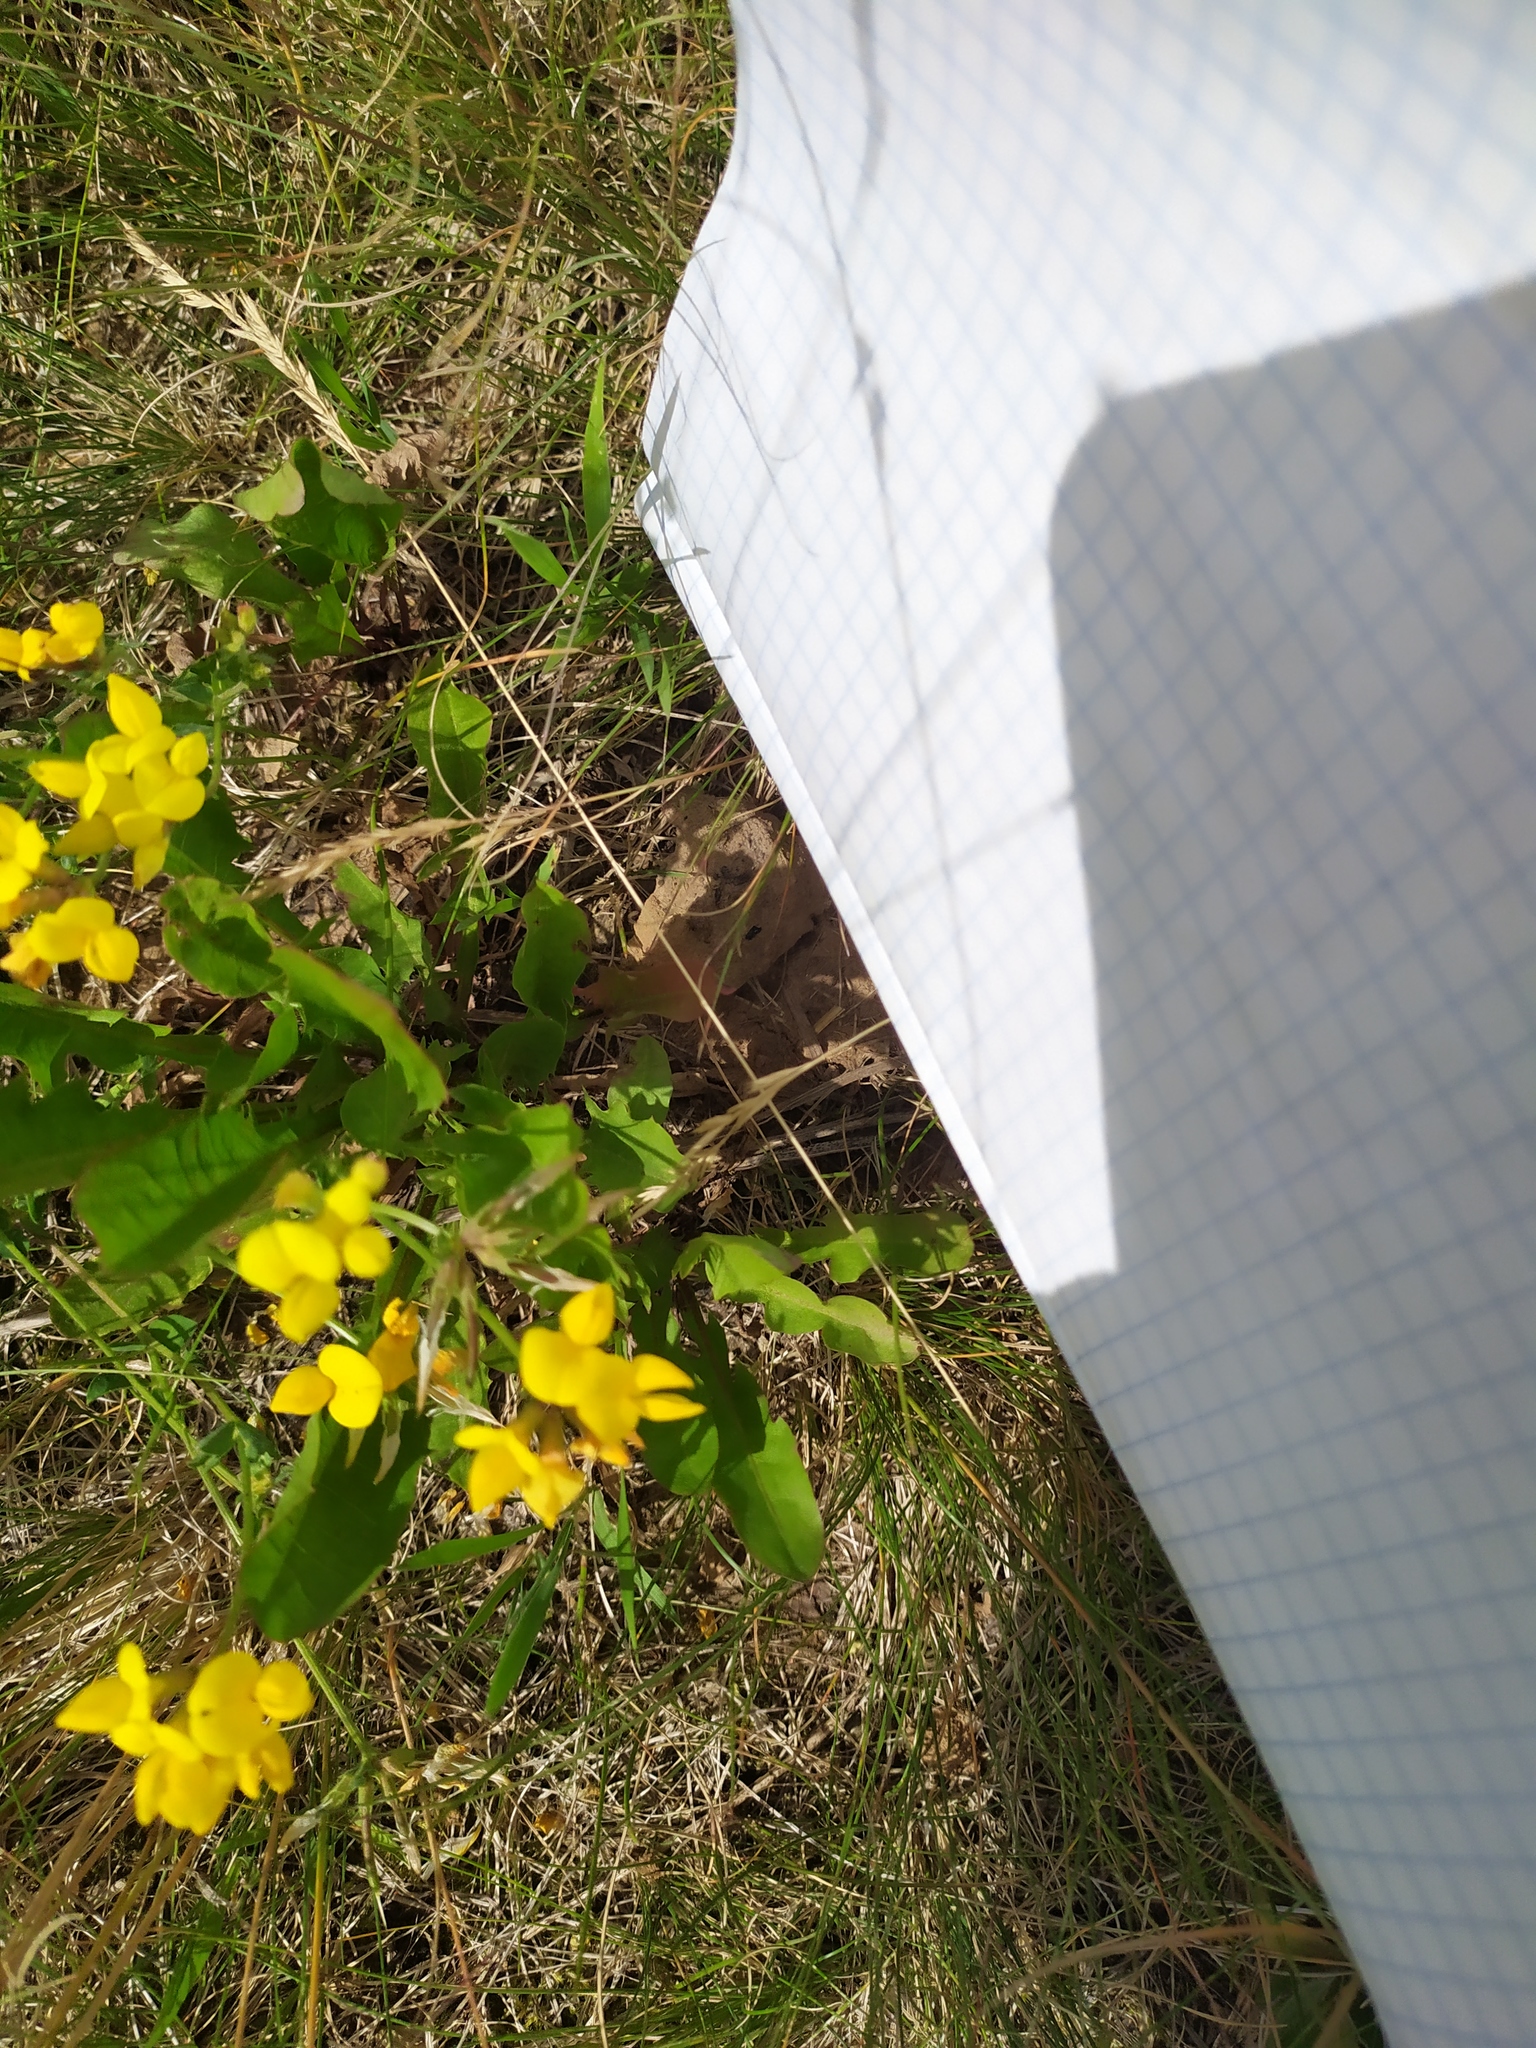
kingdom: Plantae
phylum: Tracheophyta
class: Magnoliopsida
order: Fabales
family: Fabaceae
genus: Lotus
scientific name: Lotus corniculatus
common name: Common bird's-foot-trefoil
